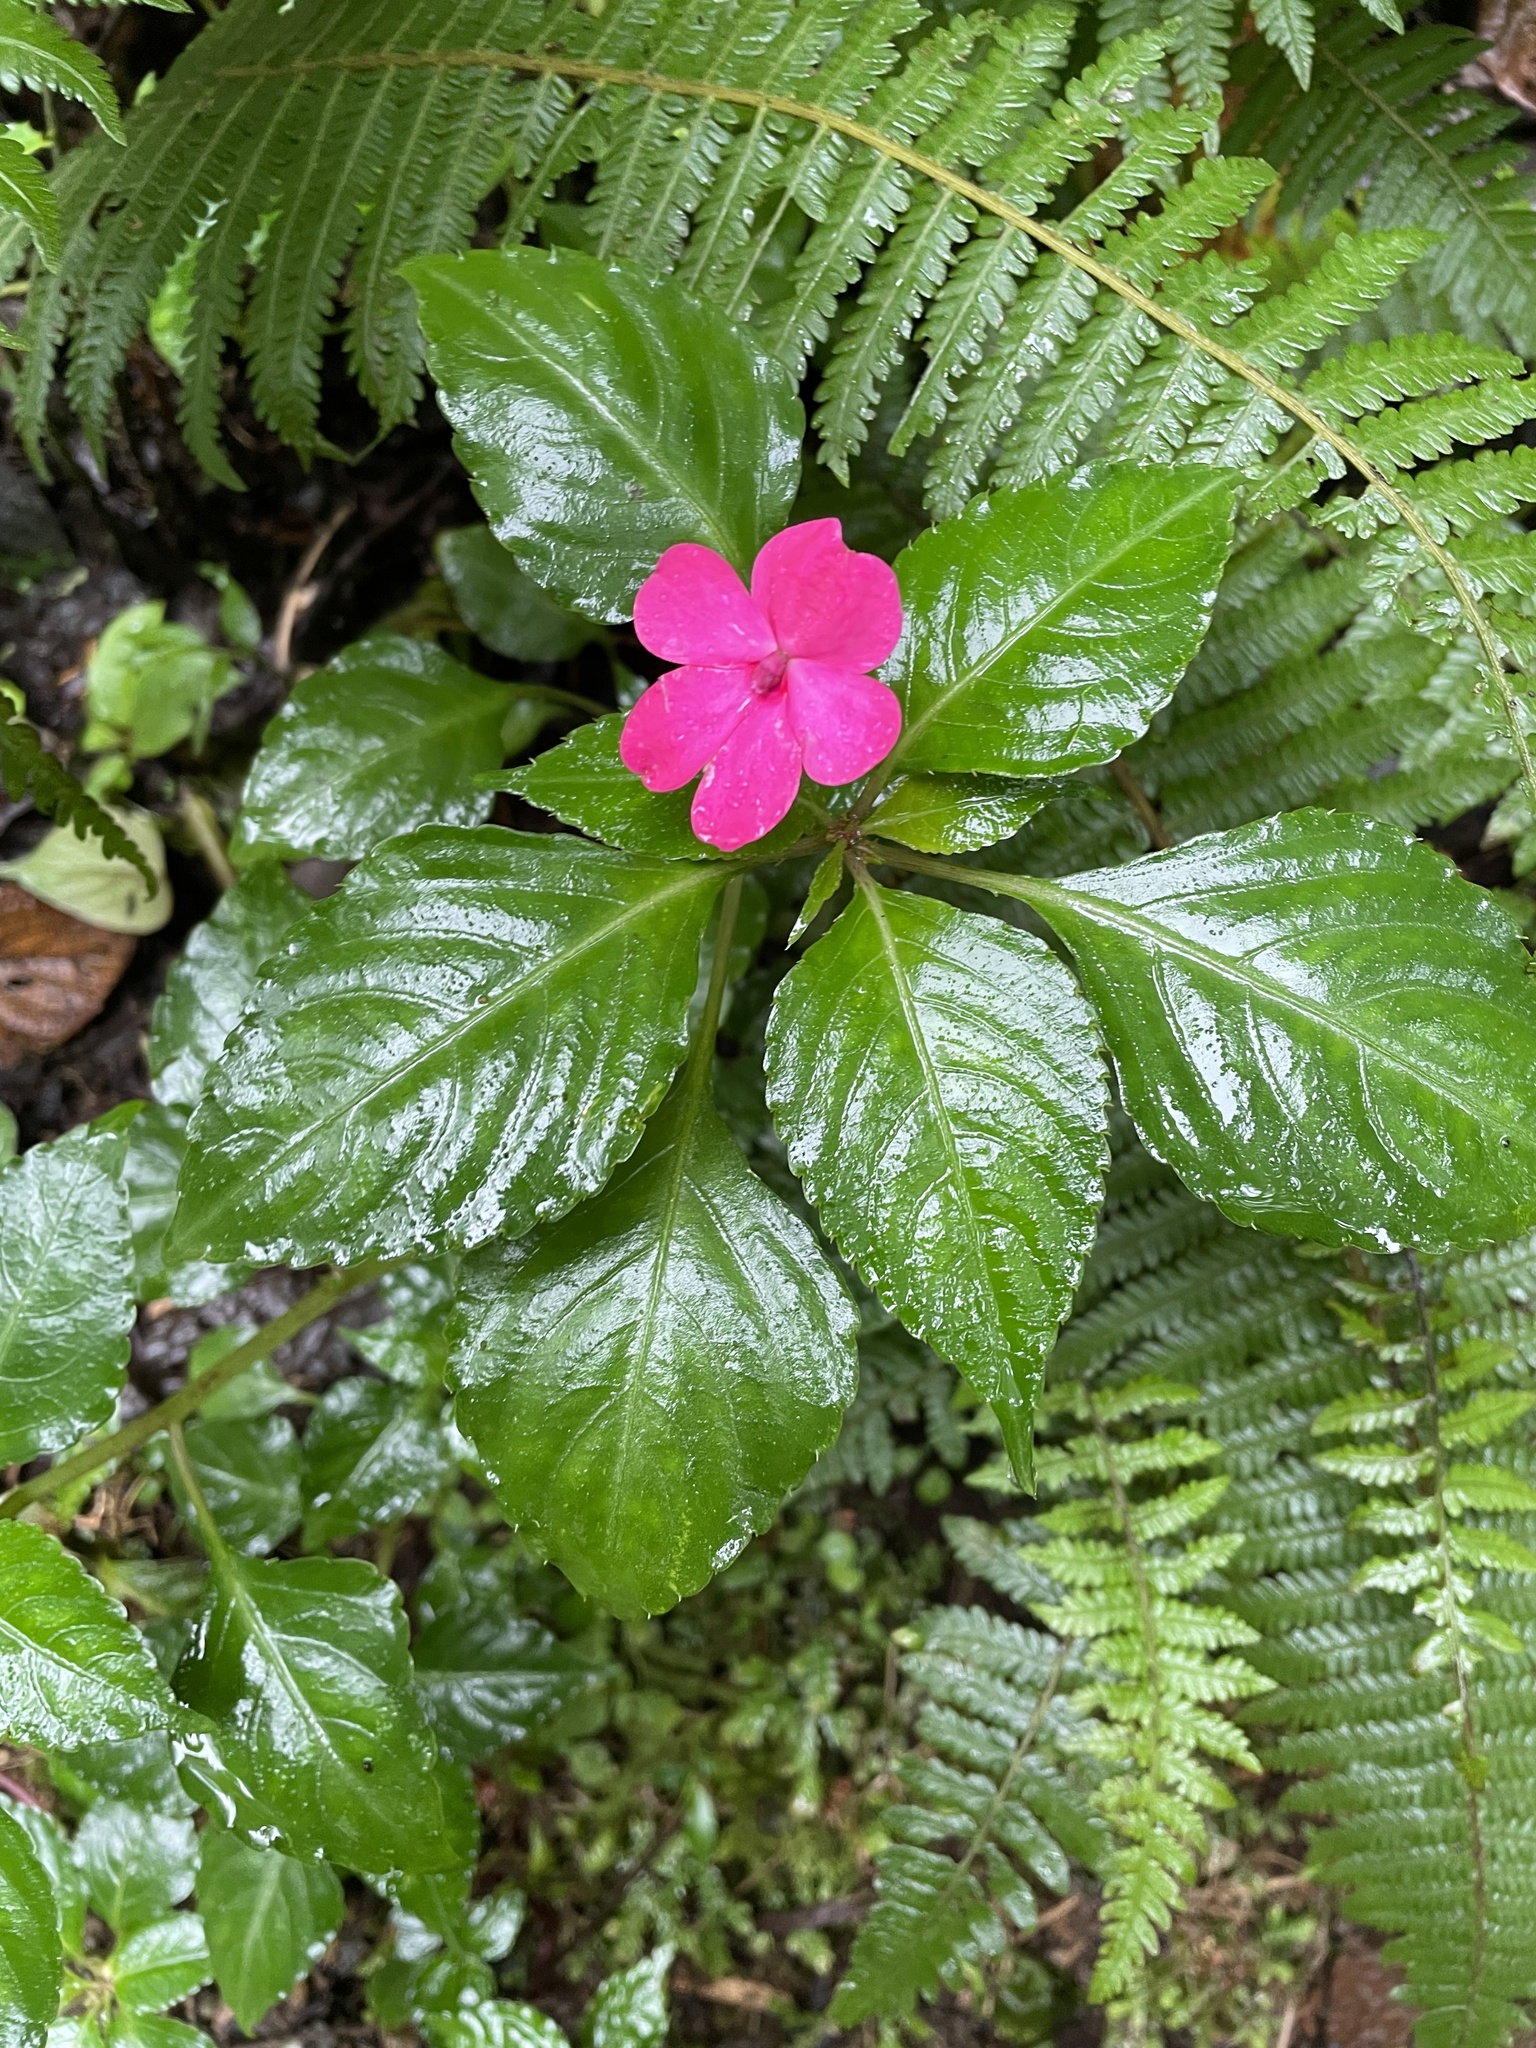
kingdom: Plantae
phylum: Tracheophyta
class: Magnoliopsida
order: Ericales
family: Balsaminaceae
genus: Impatiens
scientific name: Impatiens walleriana
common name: Buzzy lizzy
